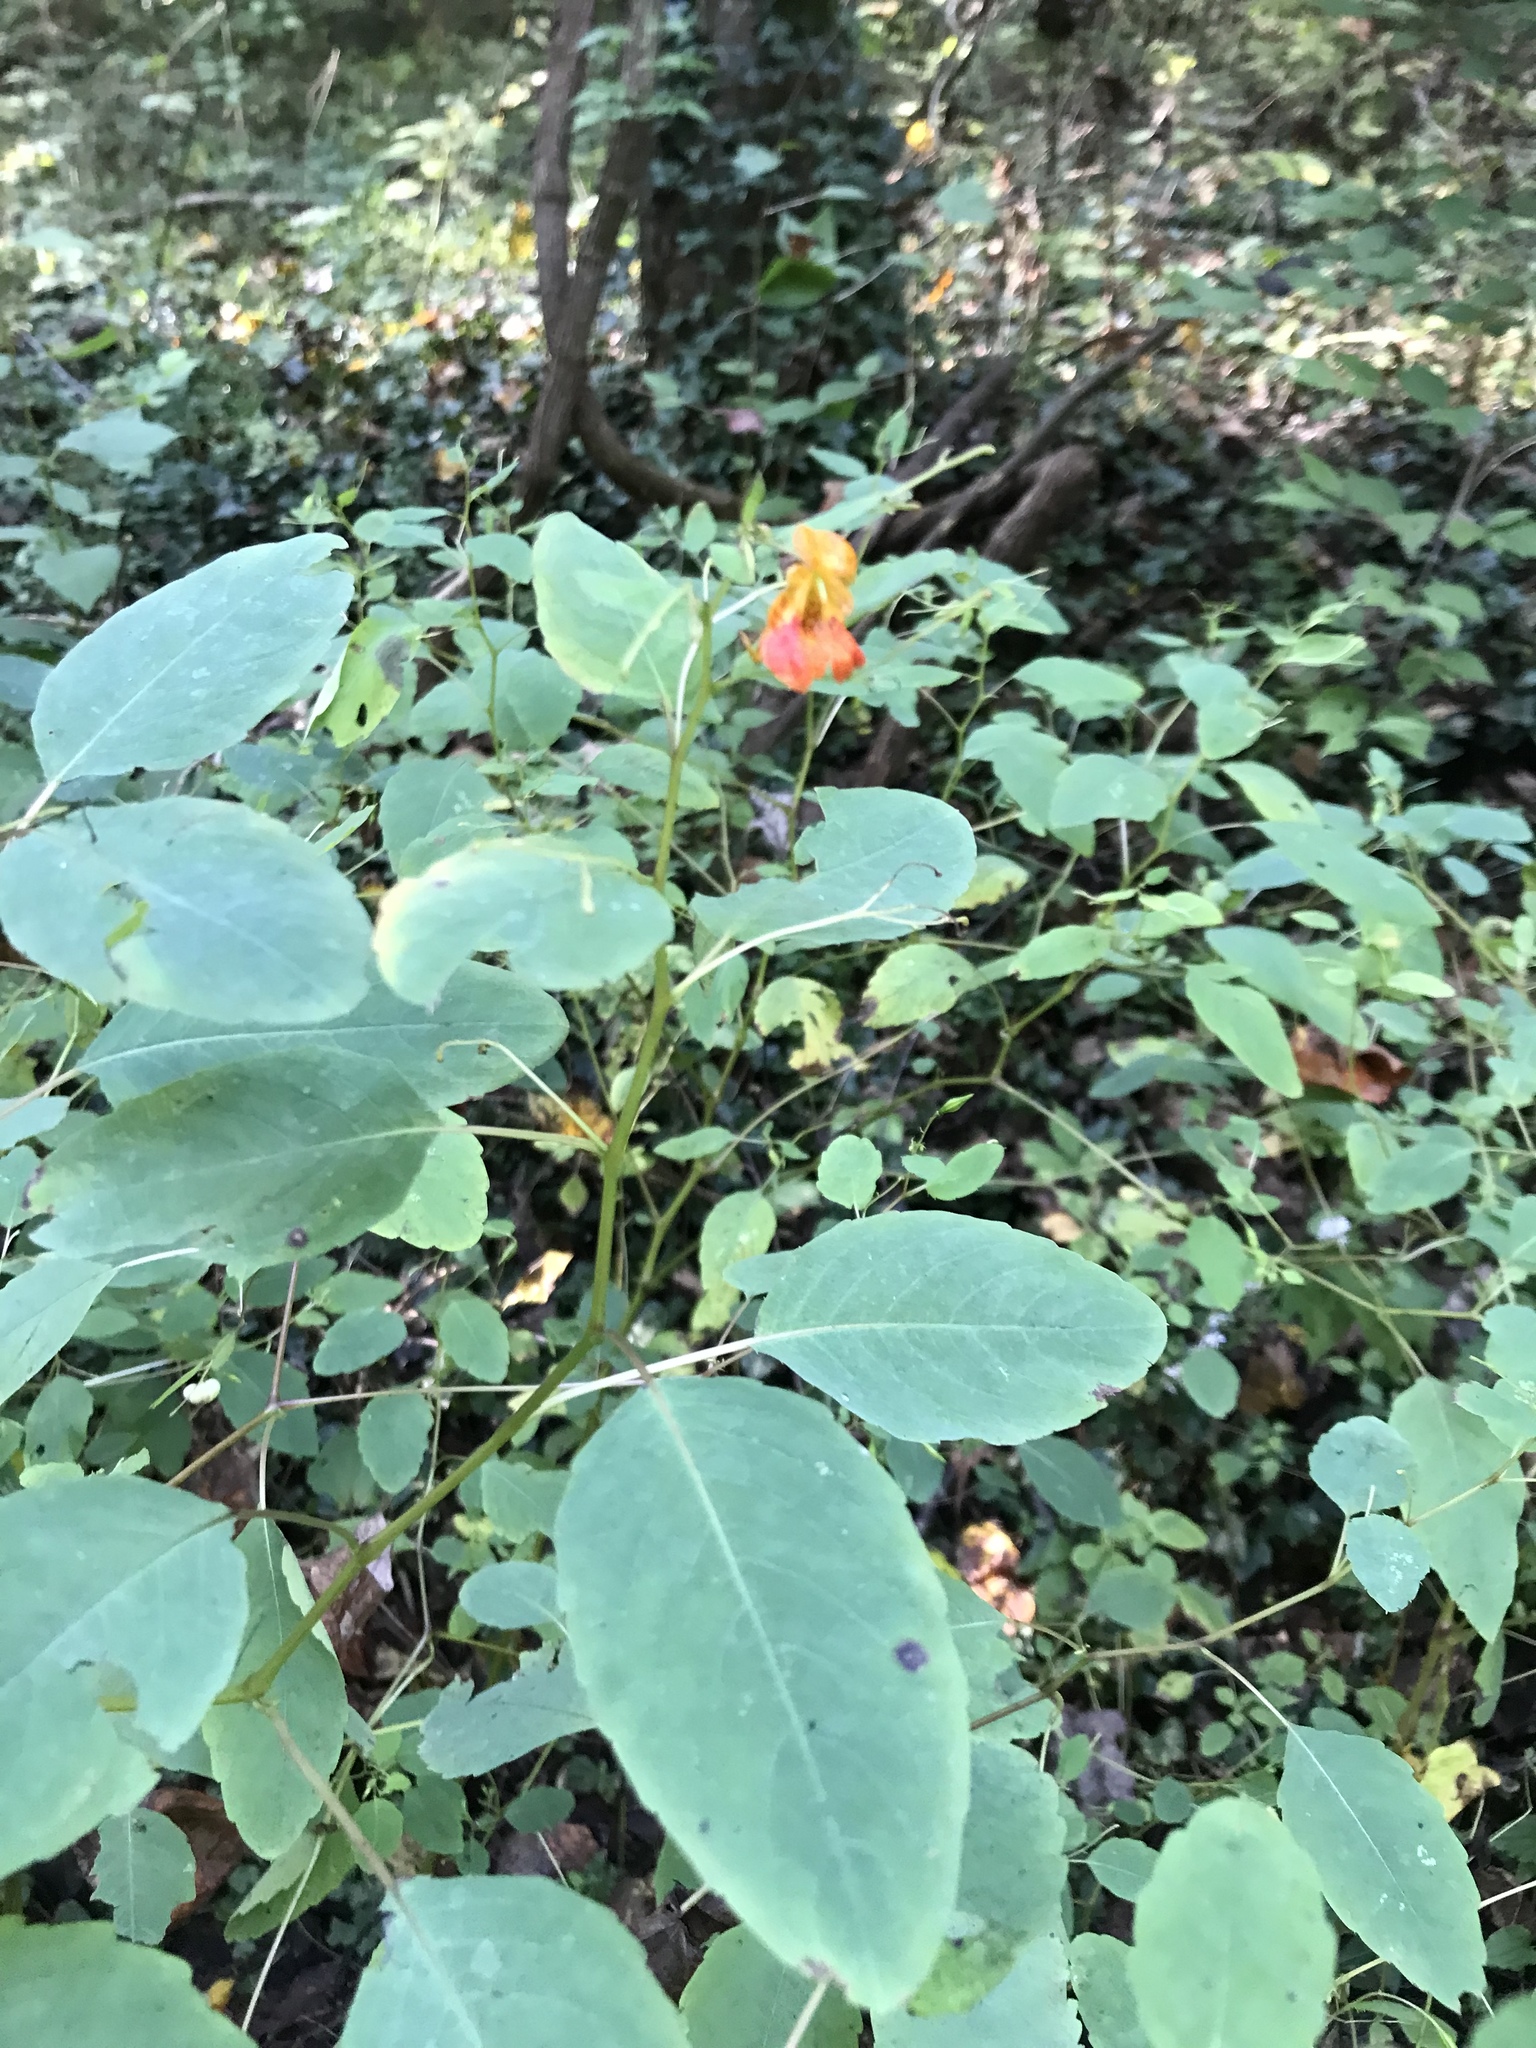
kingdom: Plantae
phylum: Tracheophyta
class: Magnoliopsida
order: Ericales
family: Balsaminaceae
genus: Impatiens
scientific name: Impatiens capensis
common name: Orange balsam
